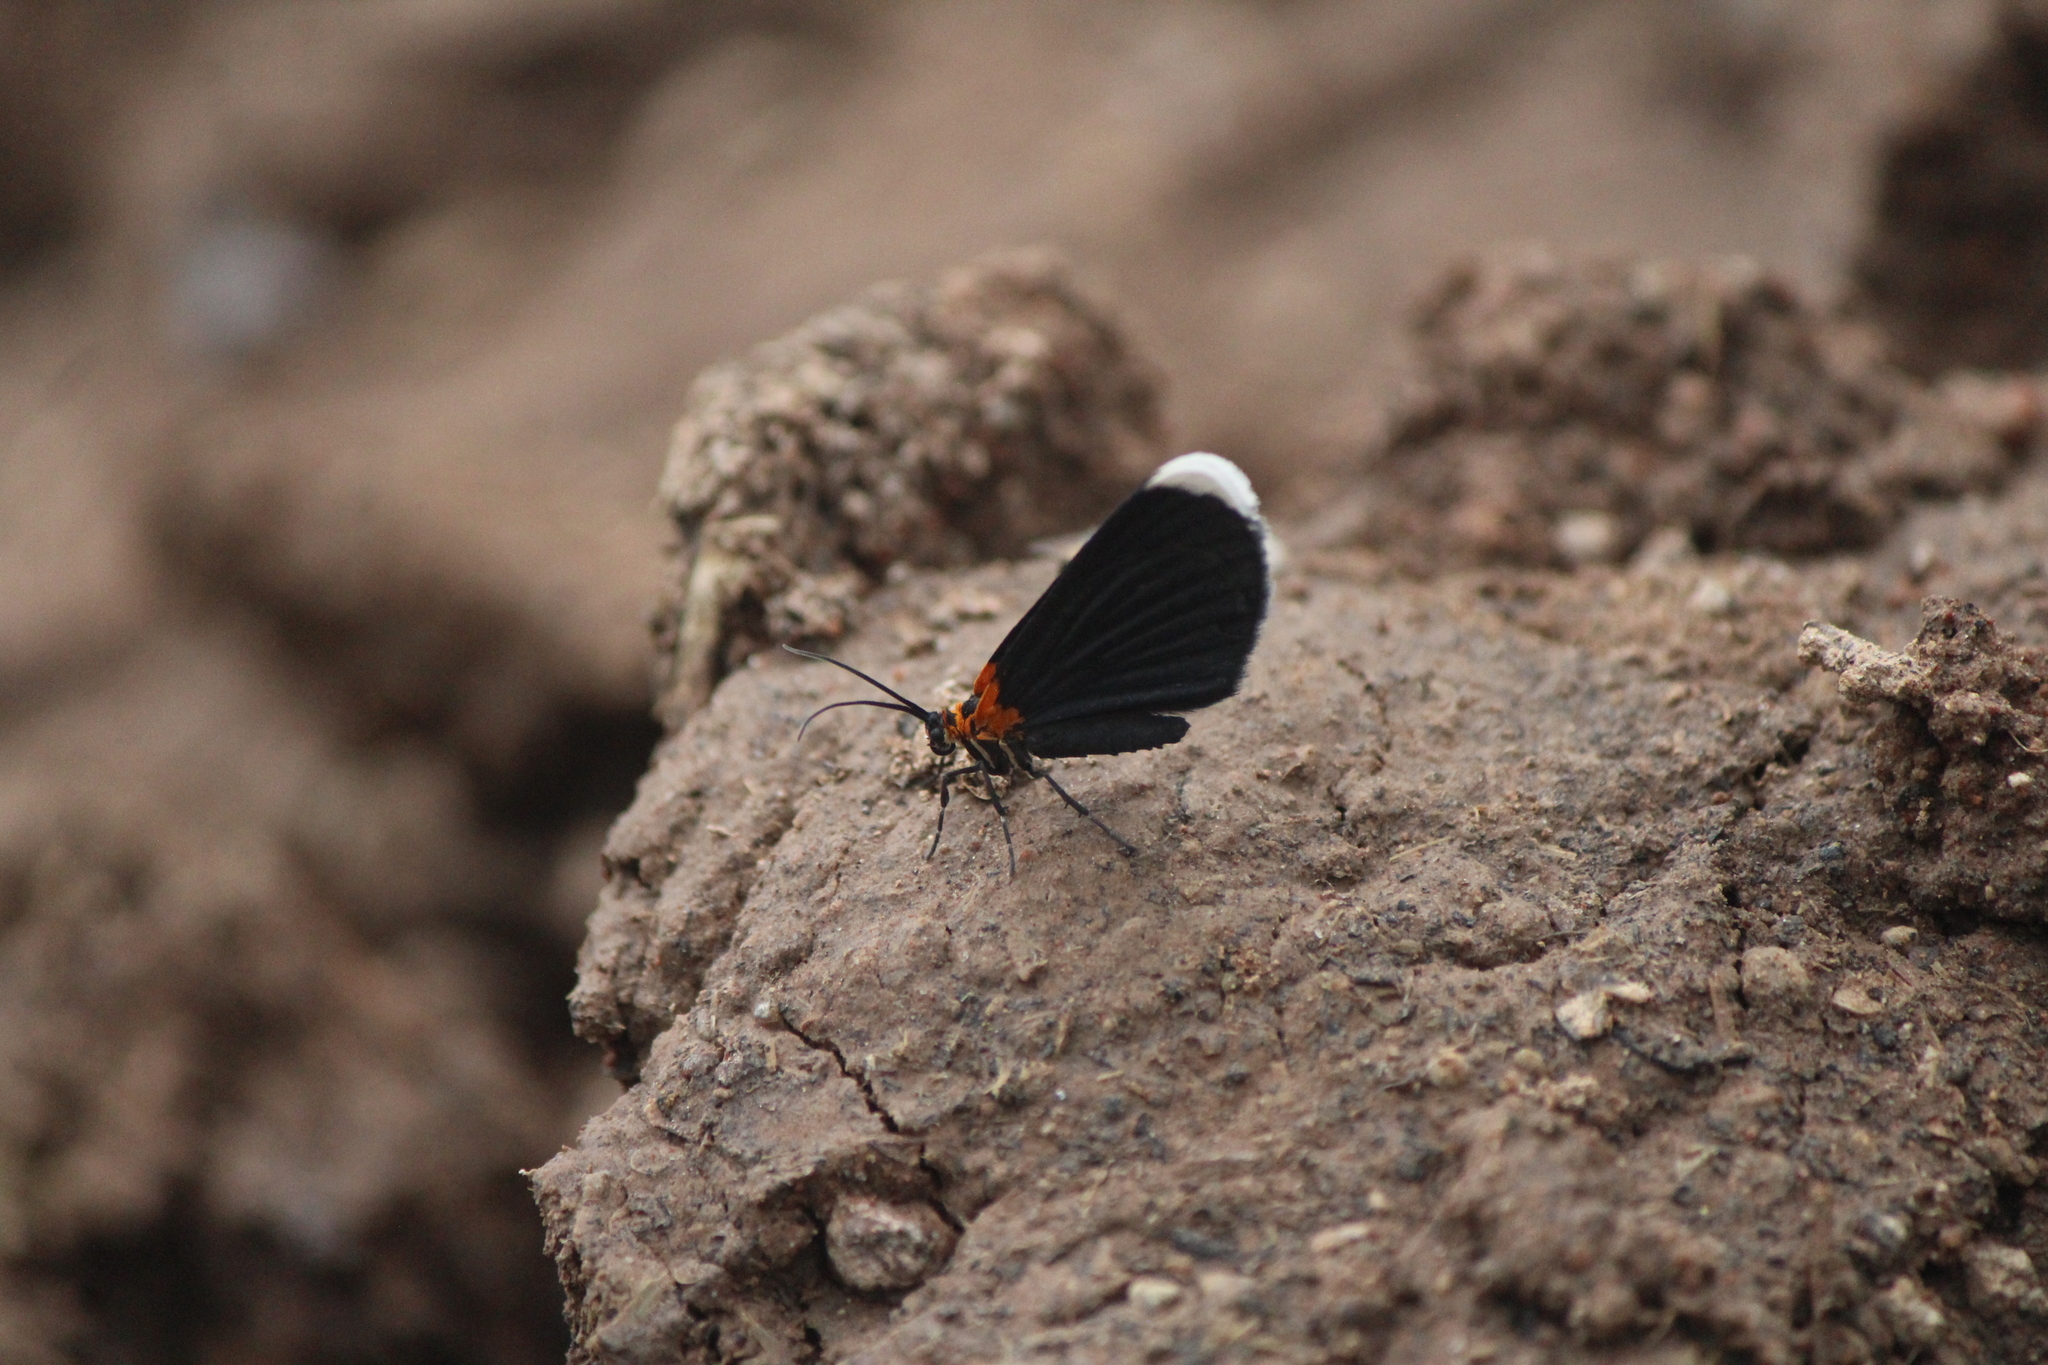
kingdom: Animalia
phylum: Arthropoda
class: Insecta
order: Lepidoptera
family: Geometridae
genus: Eutrepsia
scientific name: Eutrepsia phoebe
